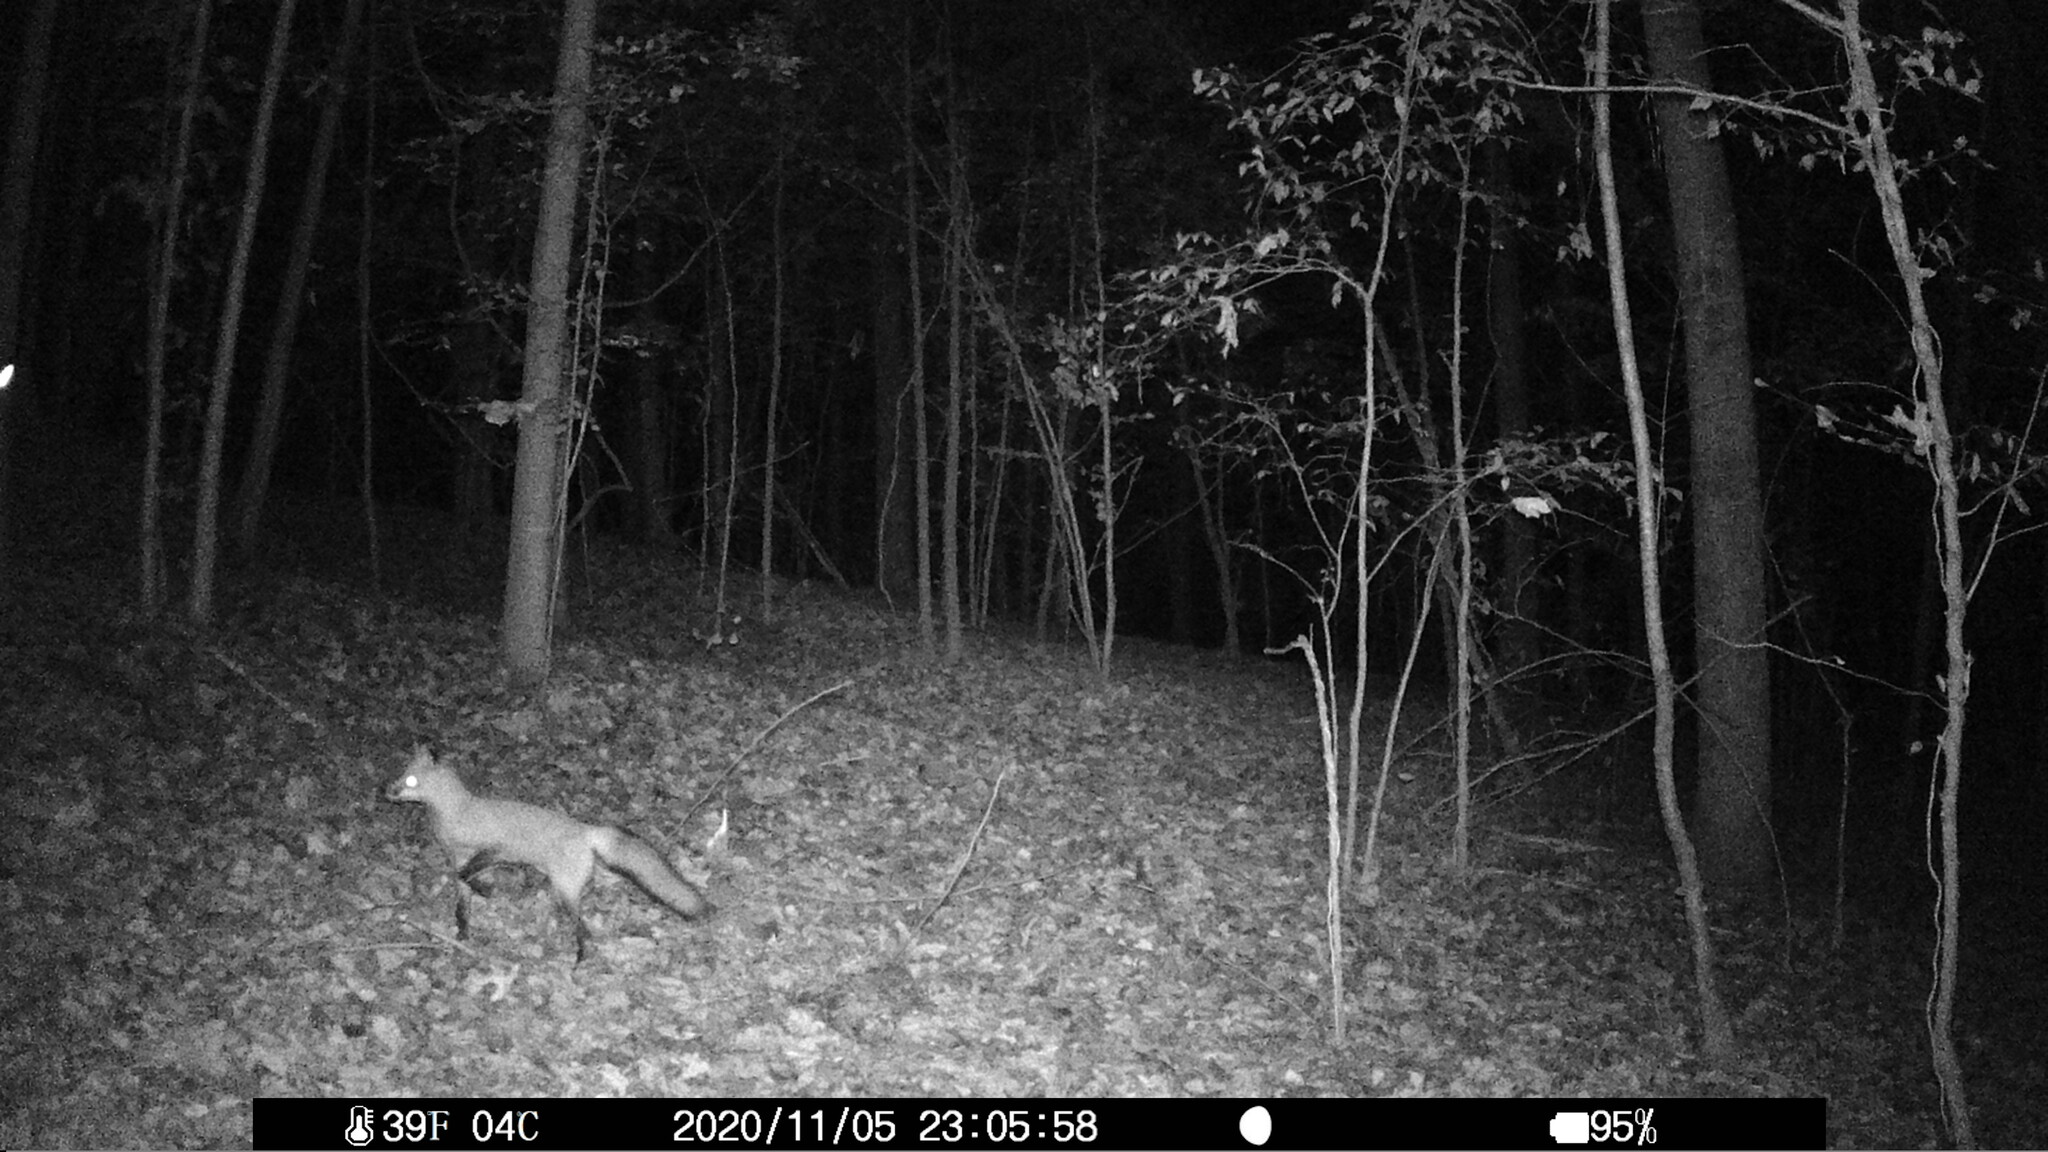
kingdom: Animalia
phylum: Chordata
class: Mammalia
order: Carnivora
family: Canidae
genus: Vulpes
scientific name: Vulpes vulpes
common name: Red fox
